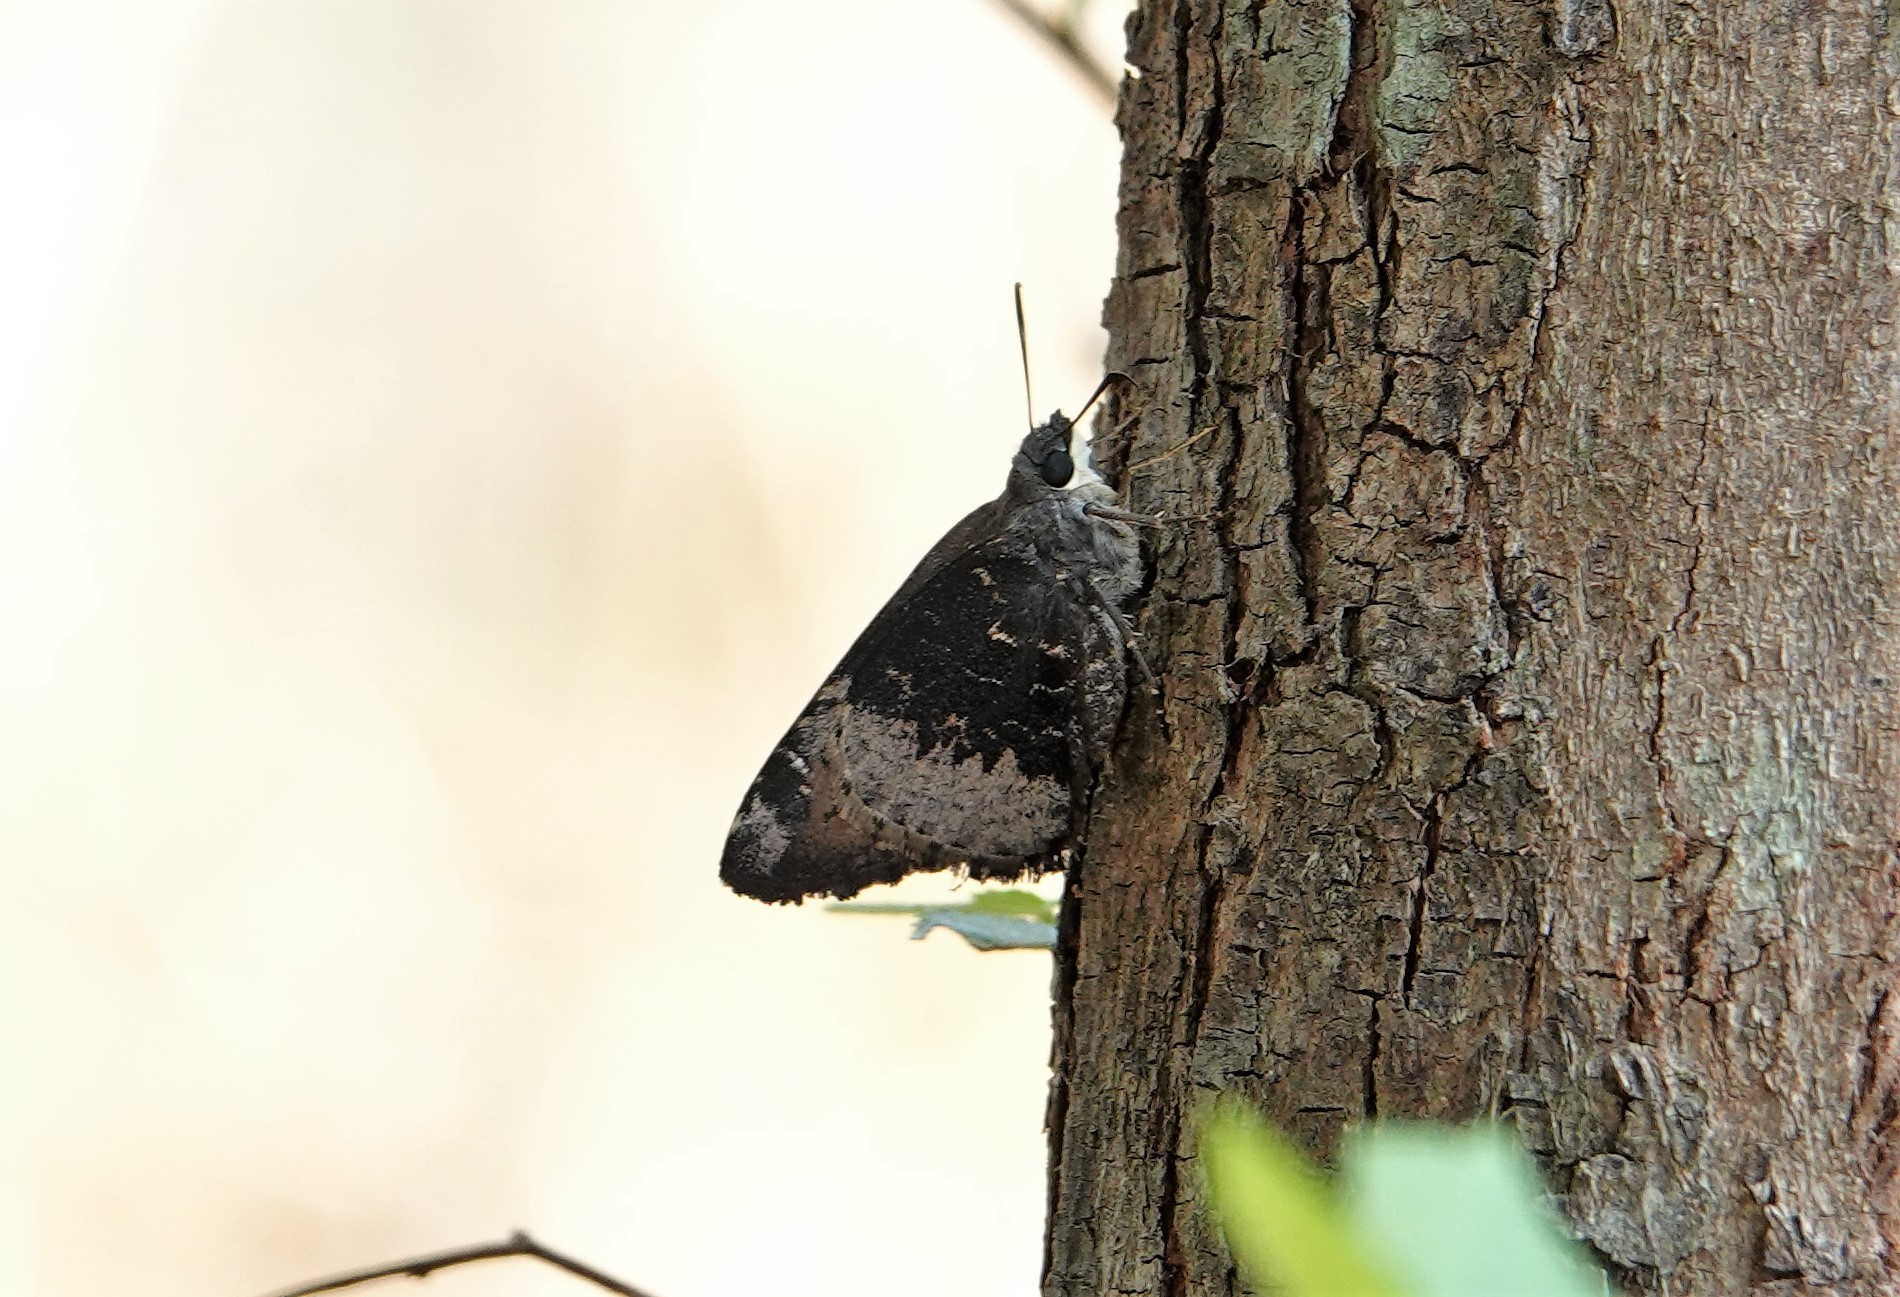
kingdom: Animalia
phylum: Arthropoda
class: Insecta
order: Lepidoptera
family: Hesperiidae
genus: Cogia
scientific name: Cogia grandis
